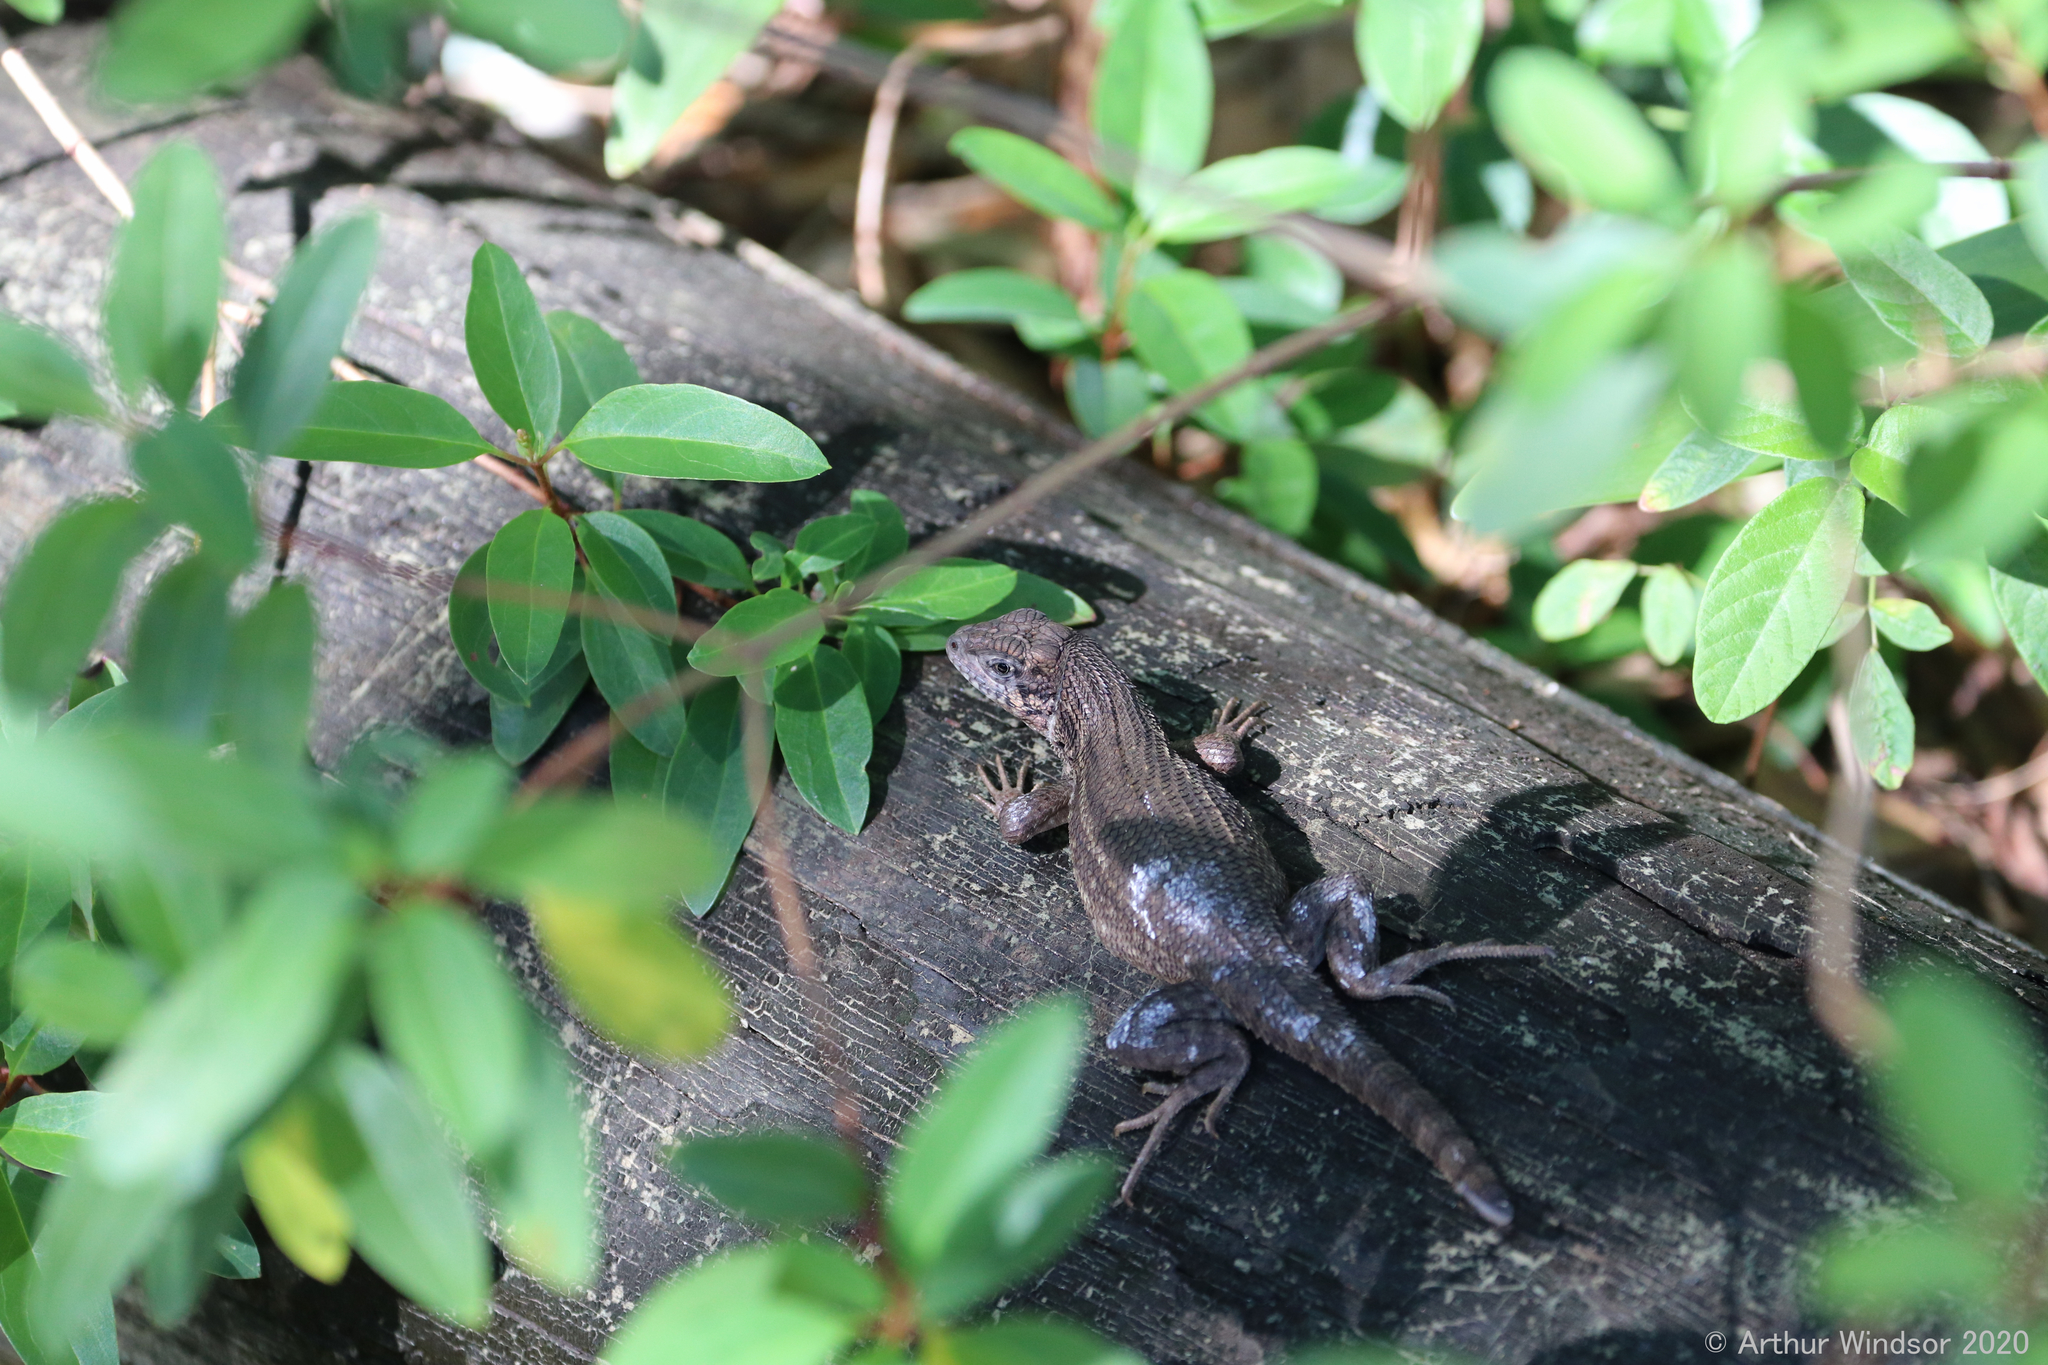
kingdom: Animalia
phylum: Chordata
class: Squamata
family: Leiocephalidae
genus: Leiocephalus
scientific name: Leiocephalus carinatus
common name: Northern curly-tailed lizard
